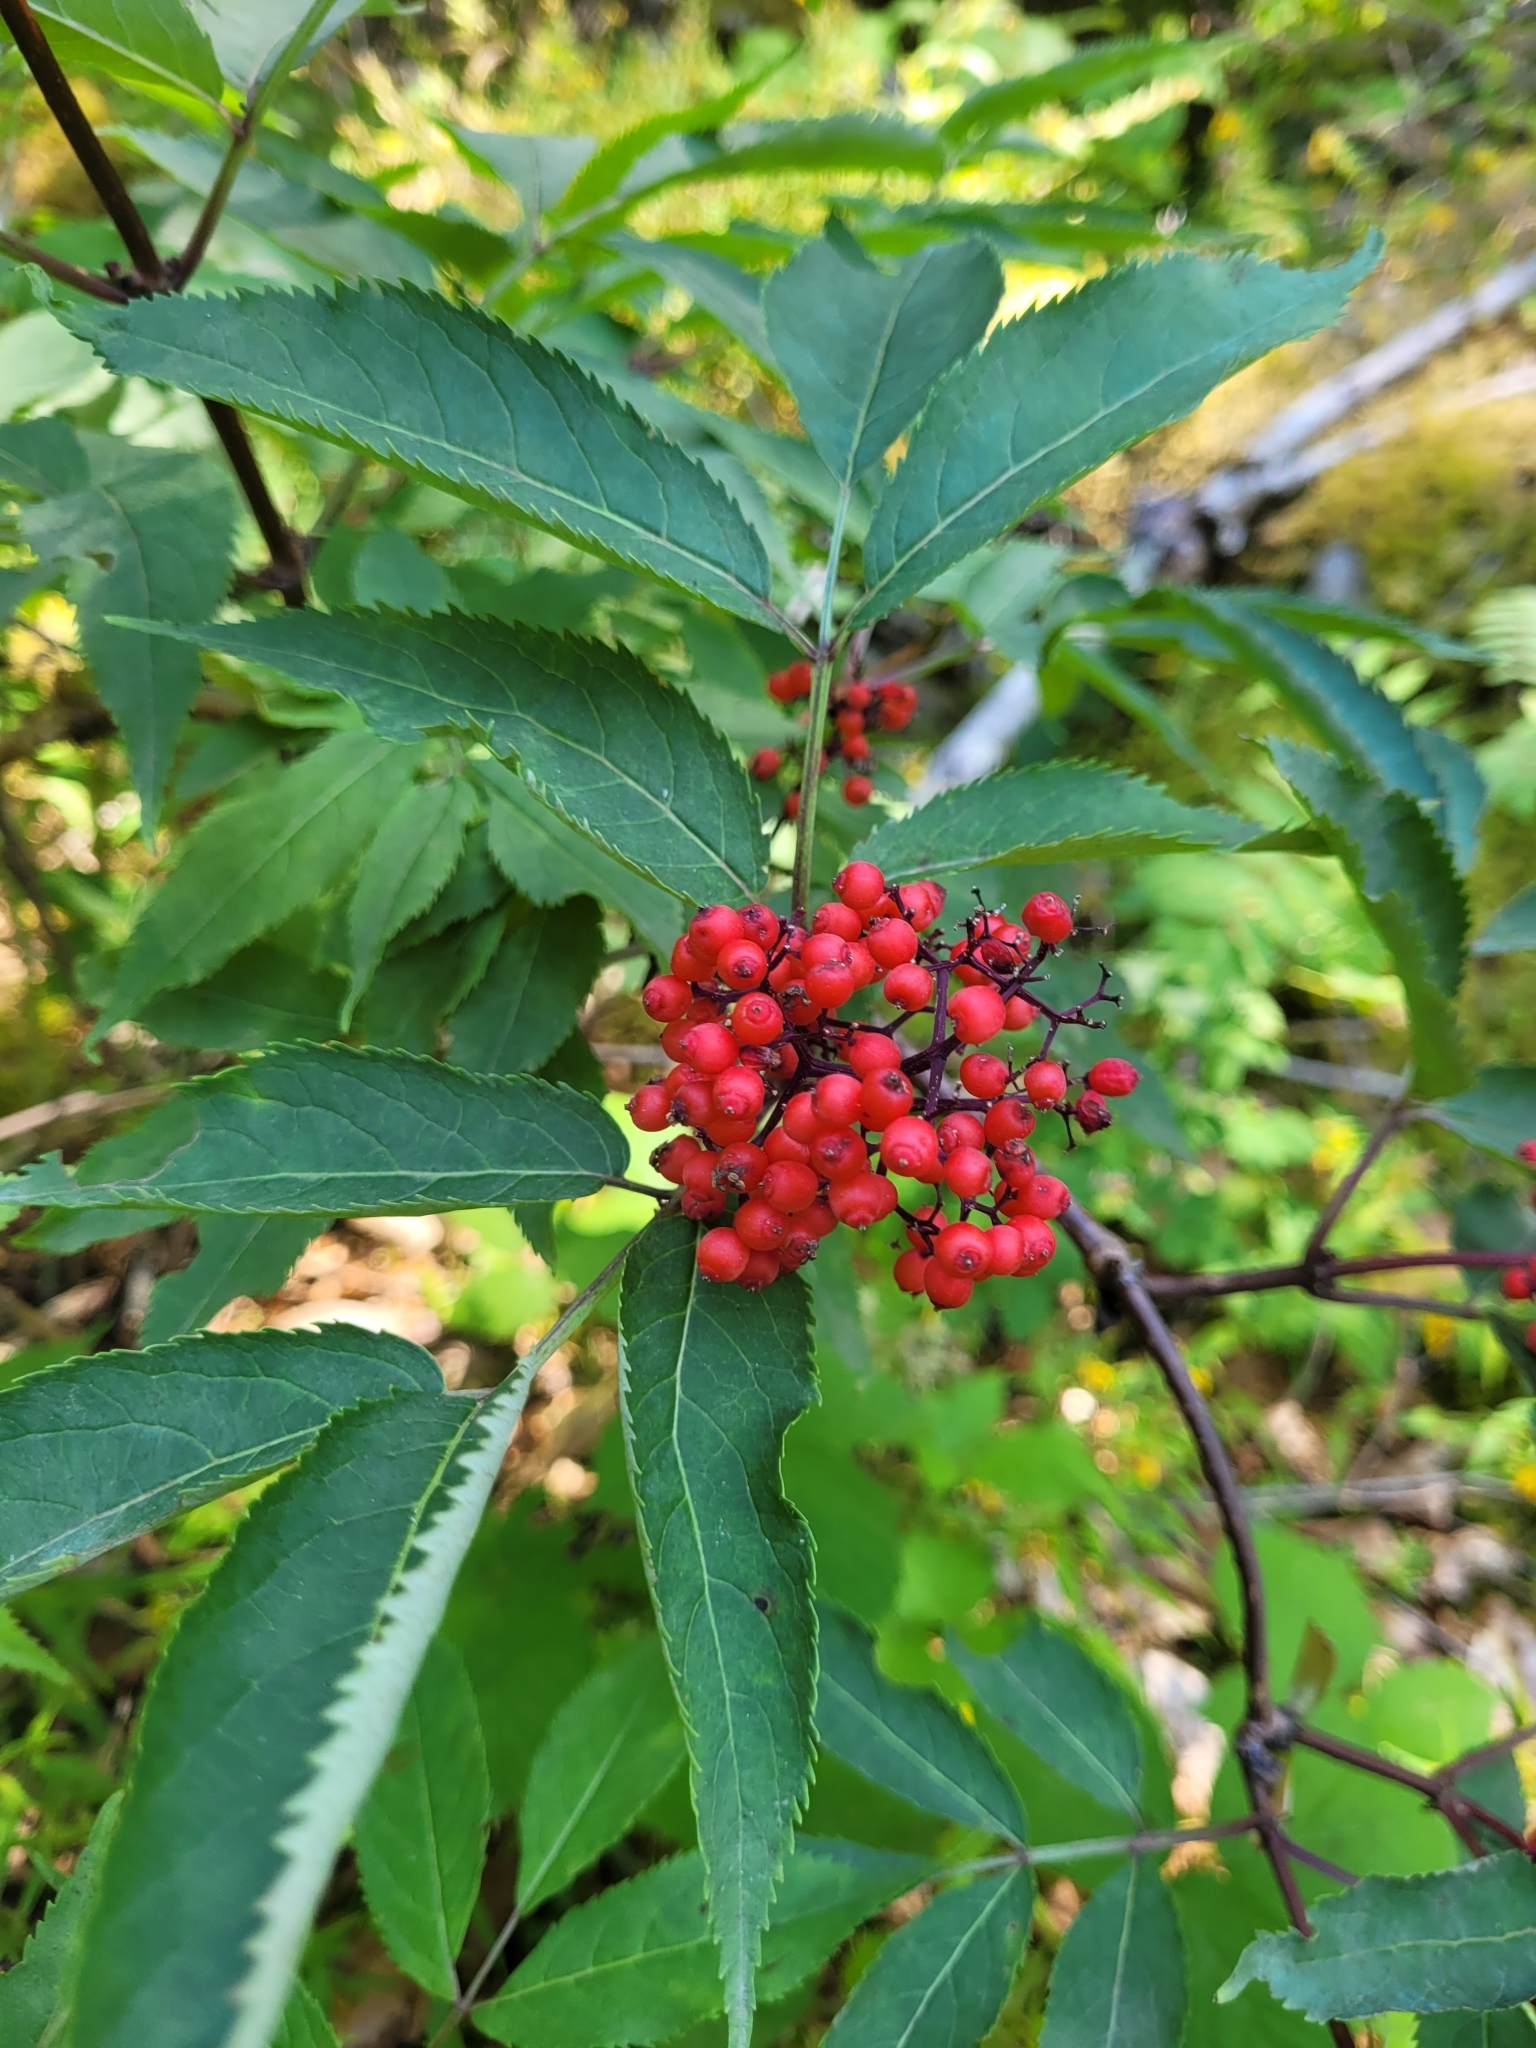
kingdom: Plantae
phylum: Tracheophyta
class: Magnoliopsida
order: Dipsacales
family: Viburnaceae
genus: Sambucus
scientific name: Sambucus racemosa
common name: Red-berried elder
